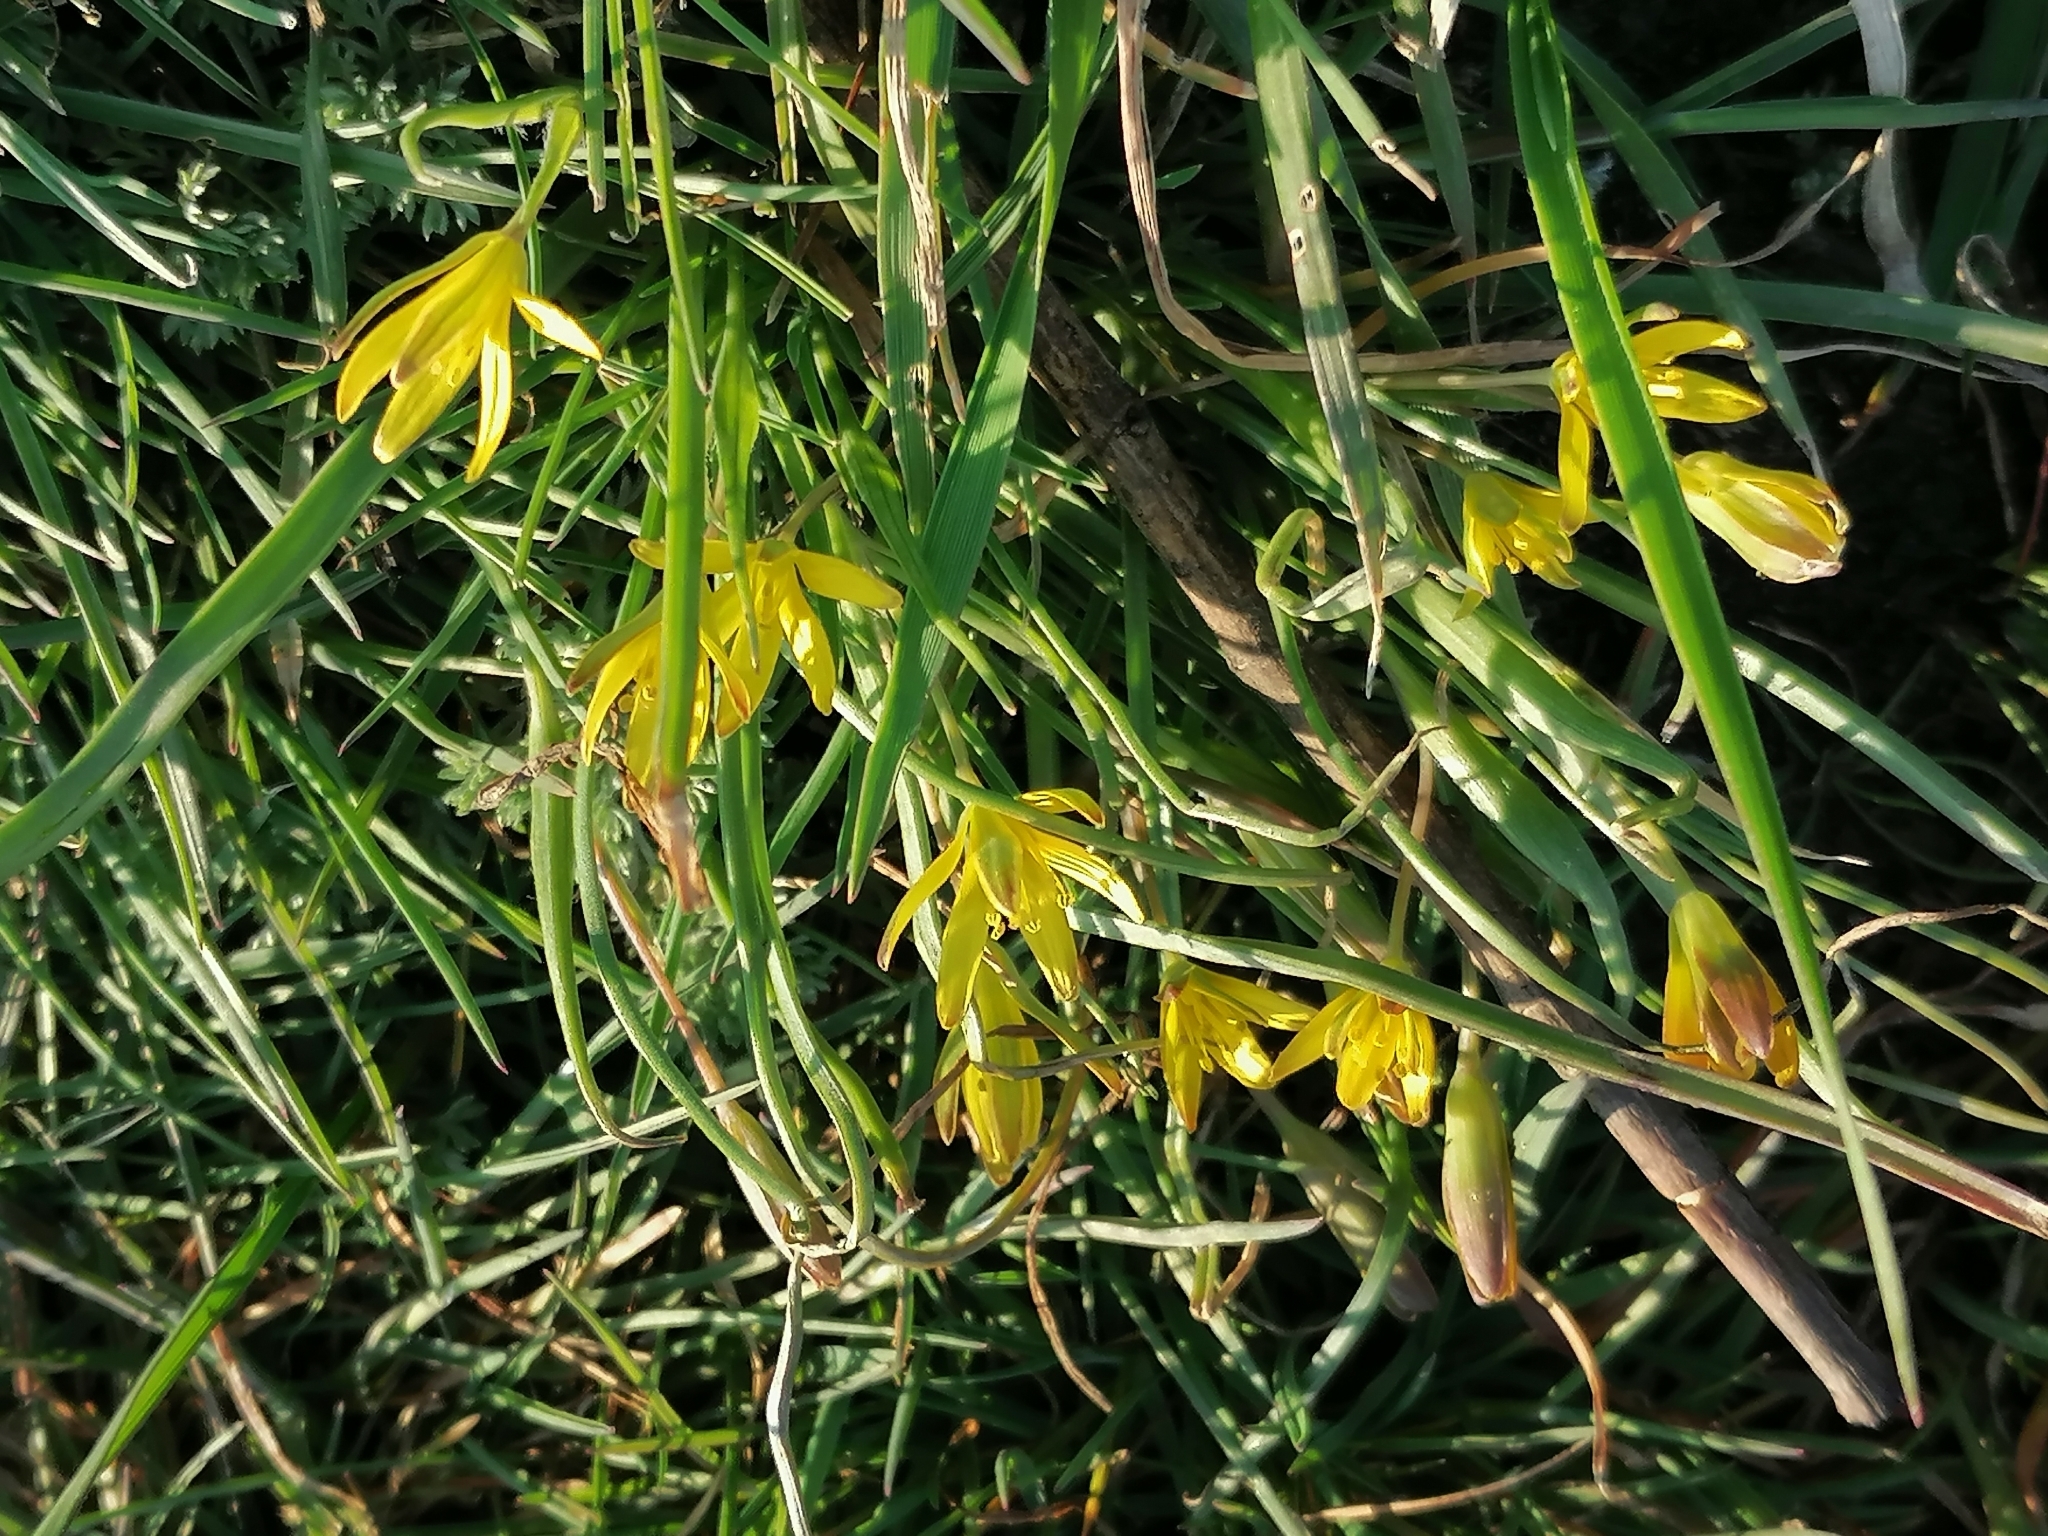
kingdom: Plantae
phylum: Tracheophyta
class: Liliopsida
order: Liliales
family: Liliaceae
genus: Gagea
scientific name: Gagea minima
